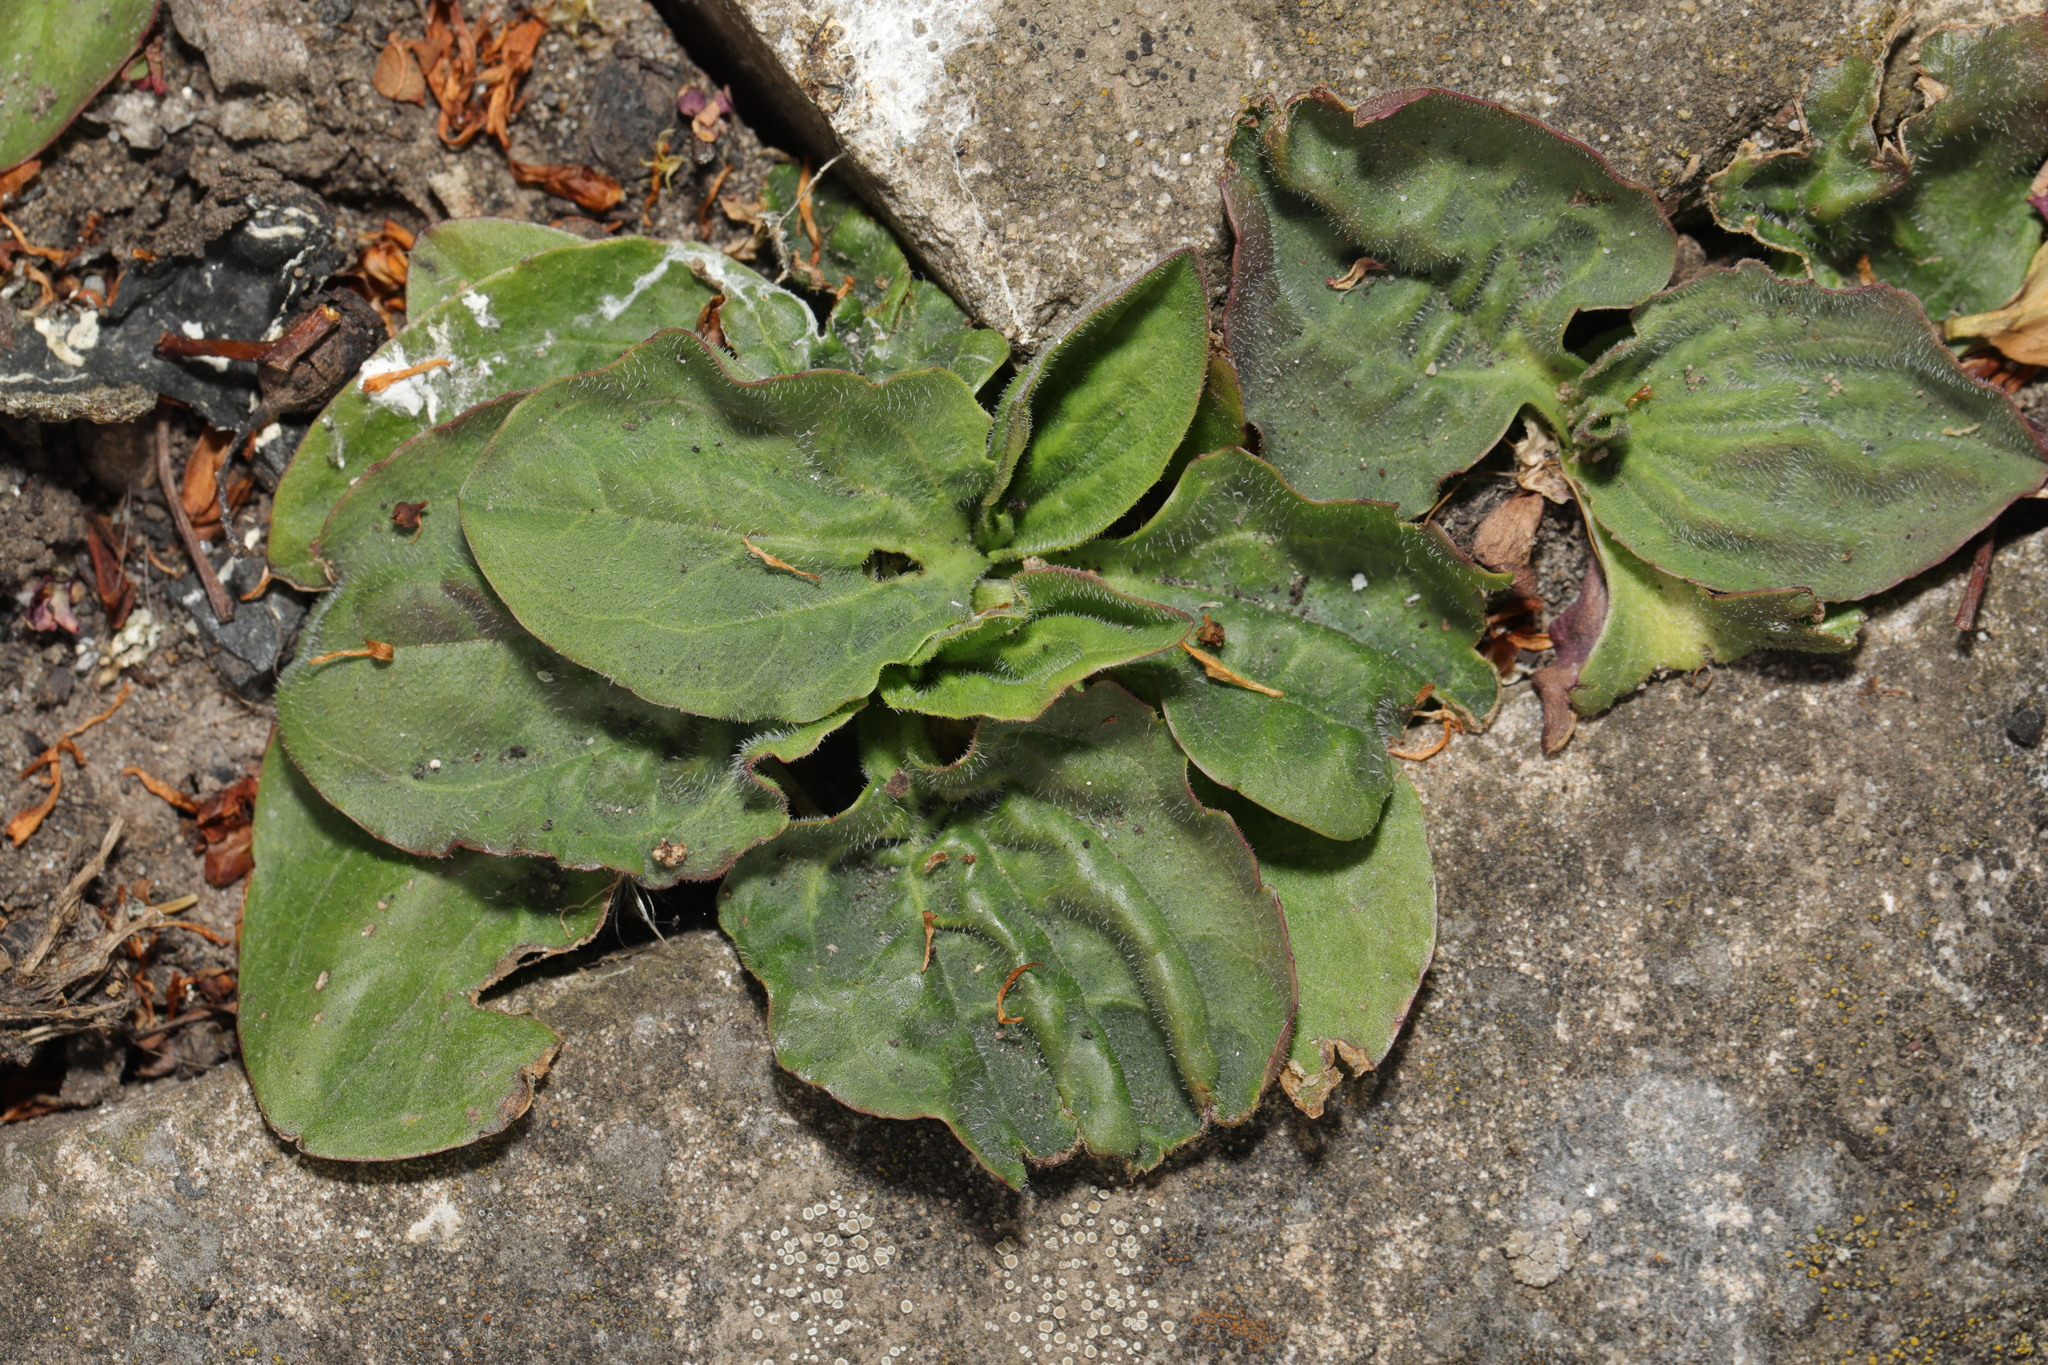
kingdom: Plantae
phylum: Tracheophyta
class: Magnoliopsida
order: Lamiales
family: Plantaginaceae
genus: Plantago
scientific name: Plantago major
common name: Common plantain
